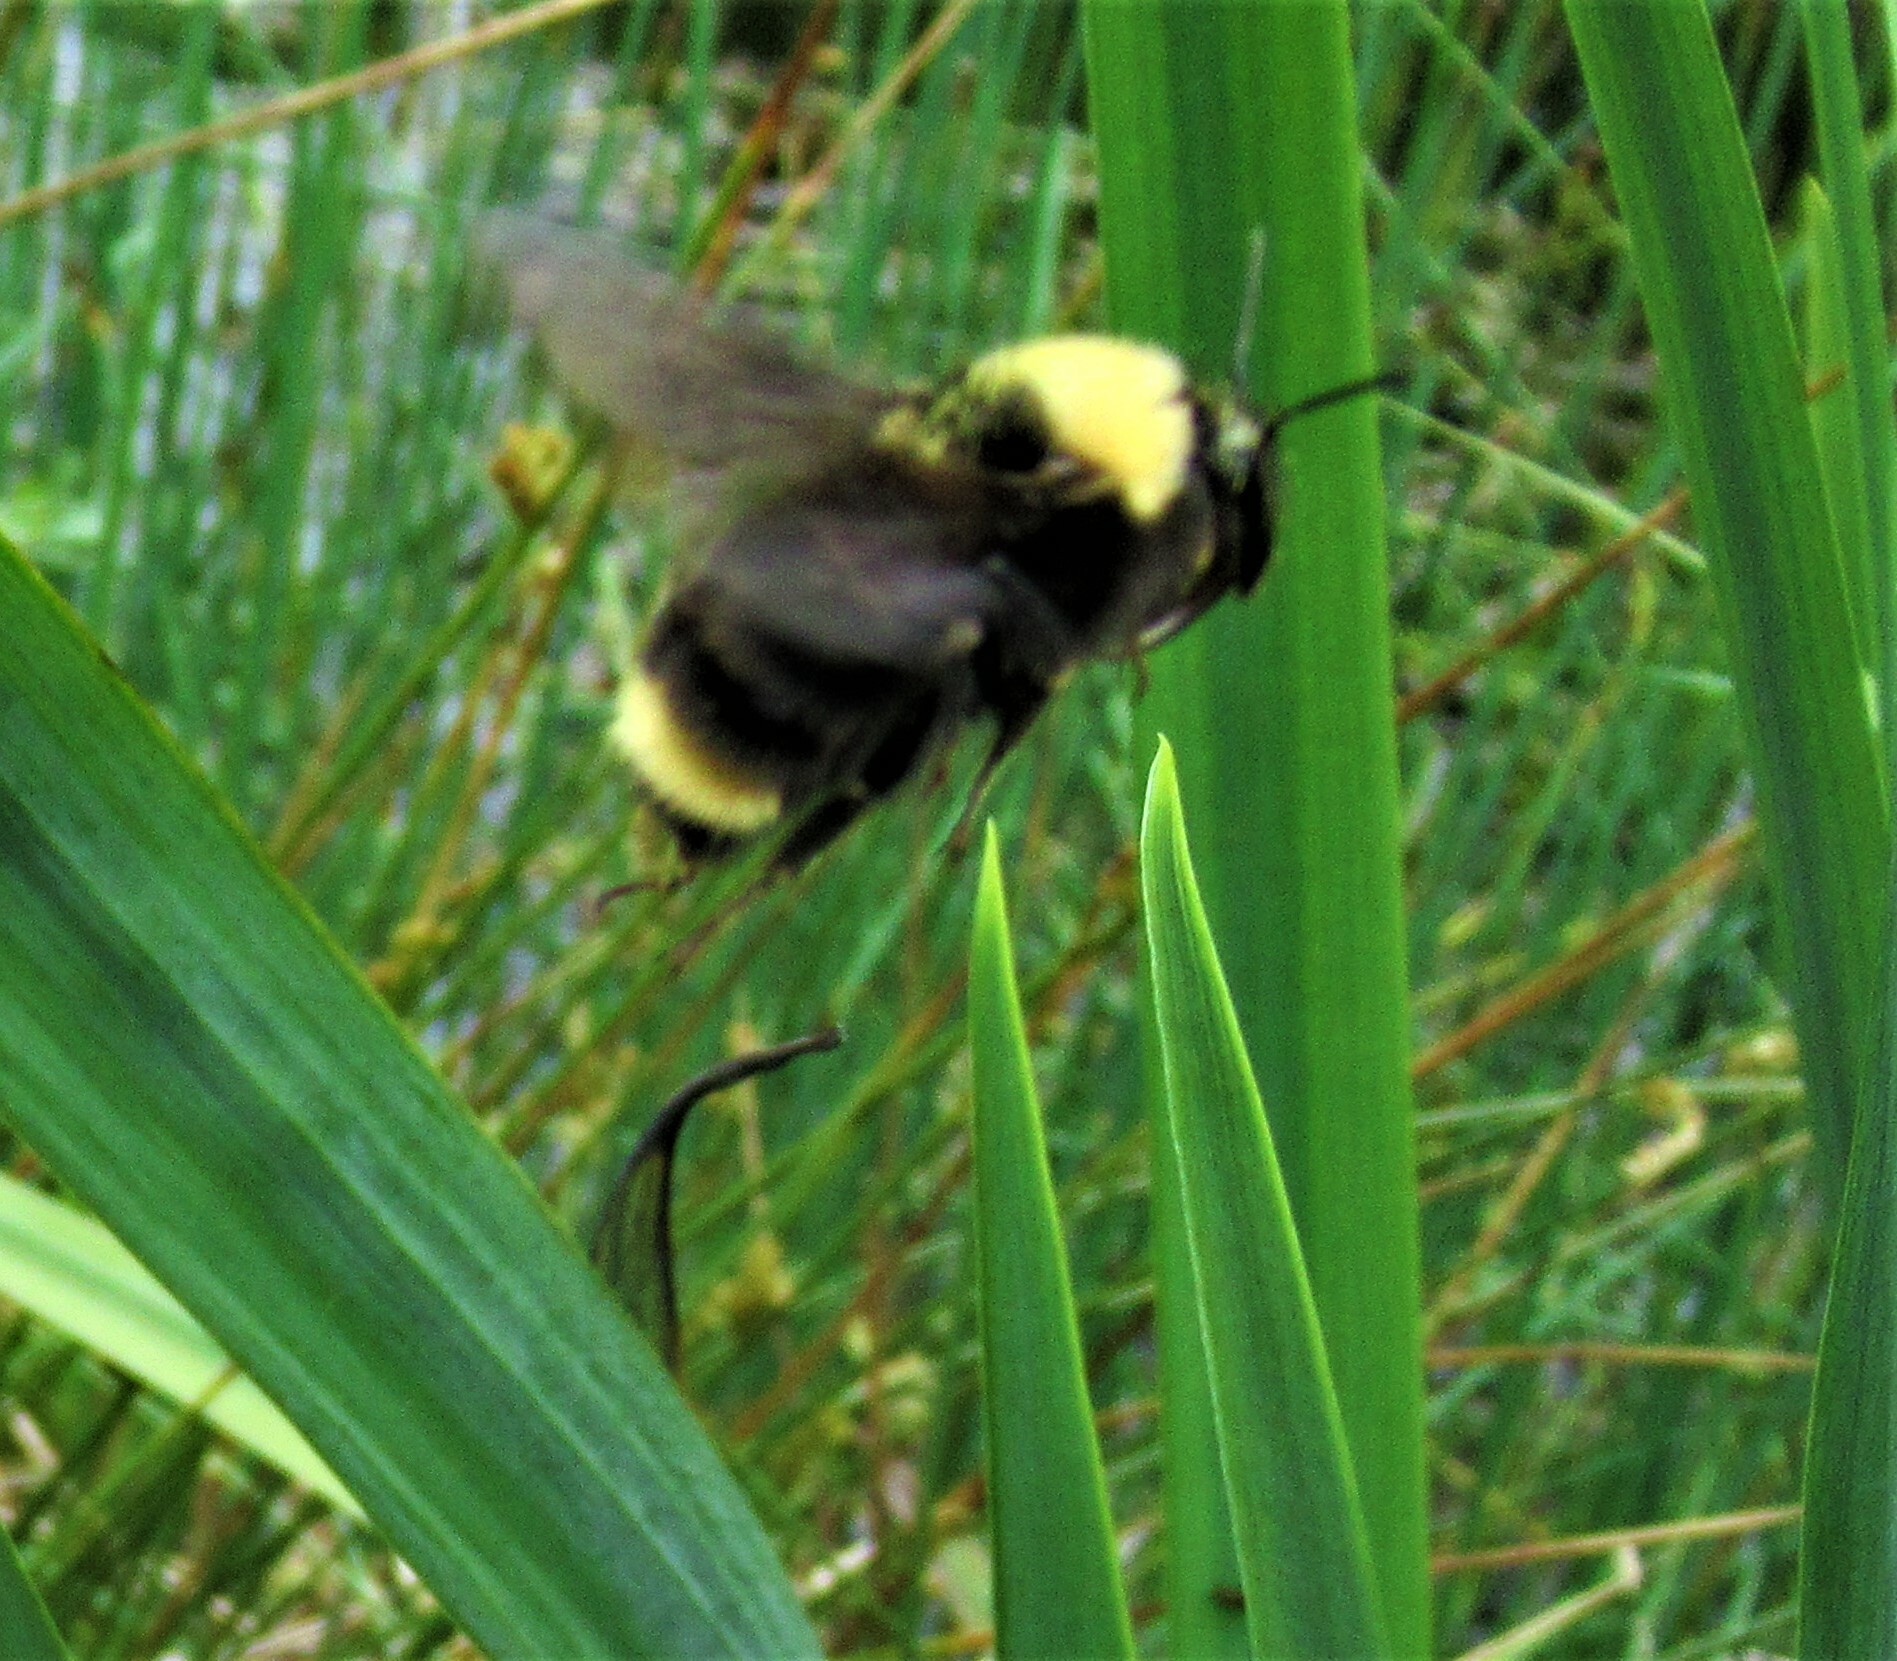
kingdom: Animalia
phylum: Arthropoda
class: Insecta
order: Hymenoptera
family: Apidae
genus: Bombus
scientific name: Bombus californicus
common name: California bumble bee
